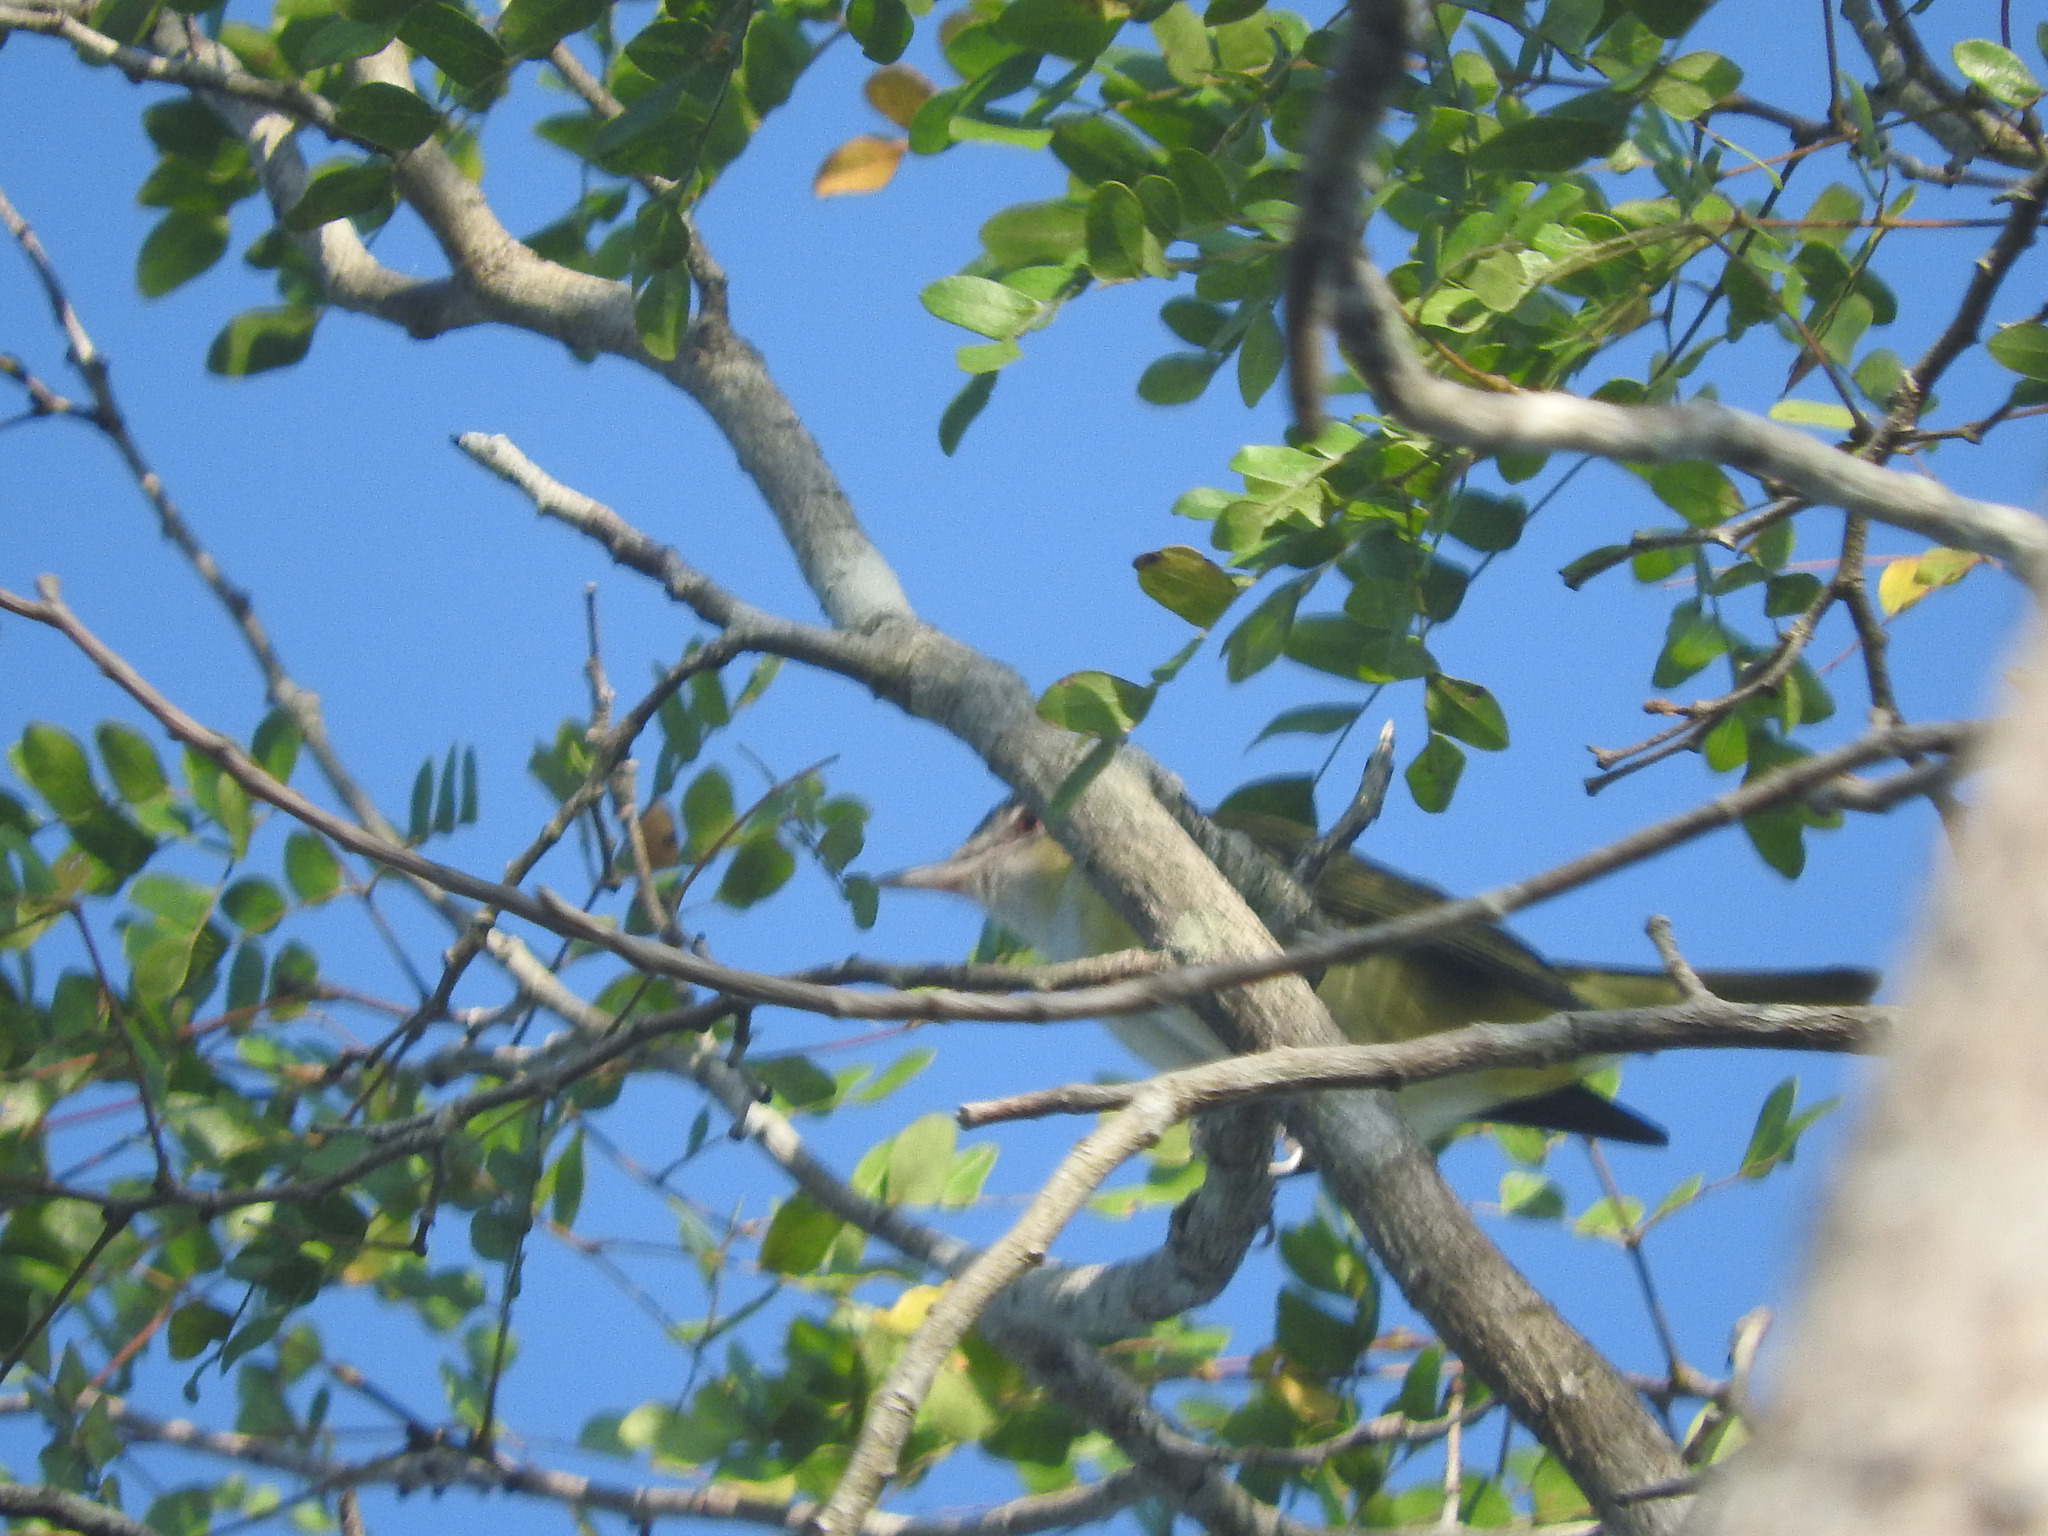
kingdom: Animalia
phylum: Chordata
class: Aves
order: Passeriformes
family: Vireonidae
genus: Vireo
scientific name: Vireo flavoviridis
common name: Yellow-green vireo
